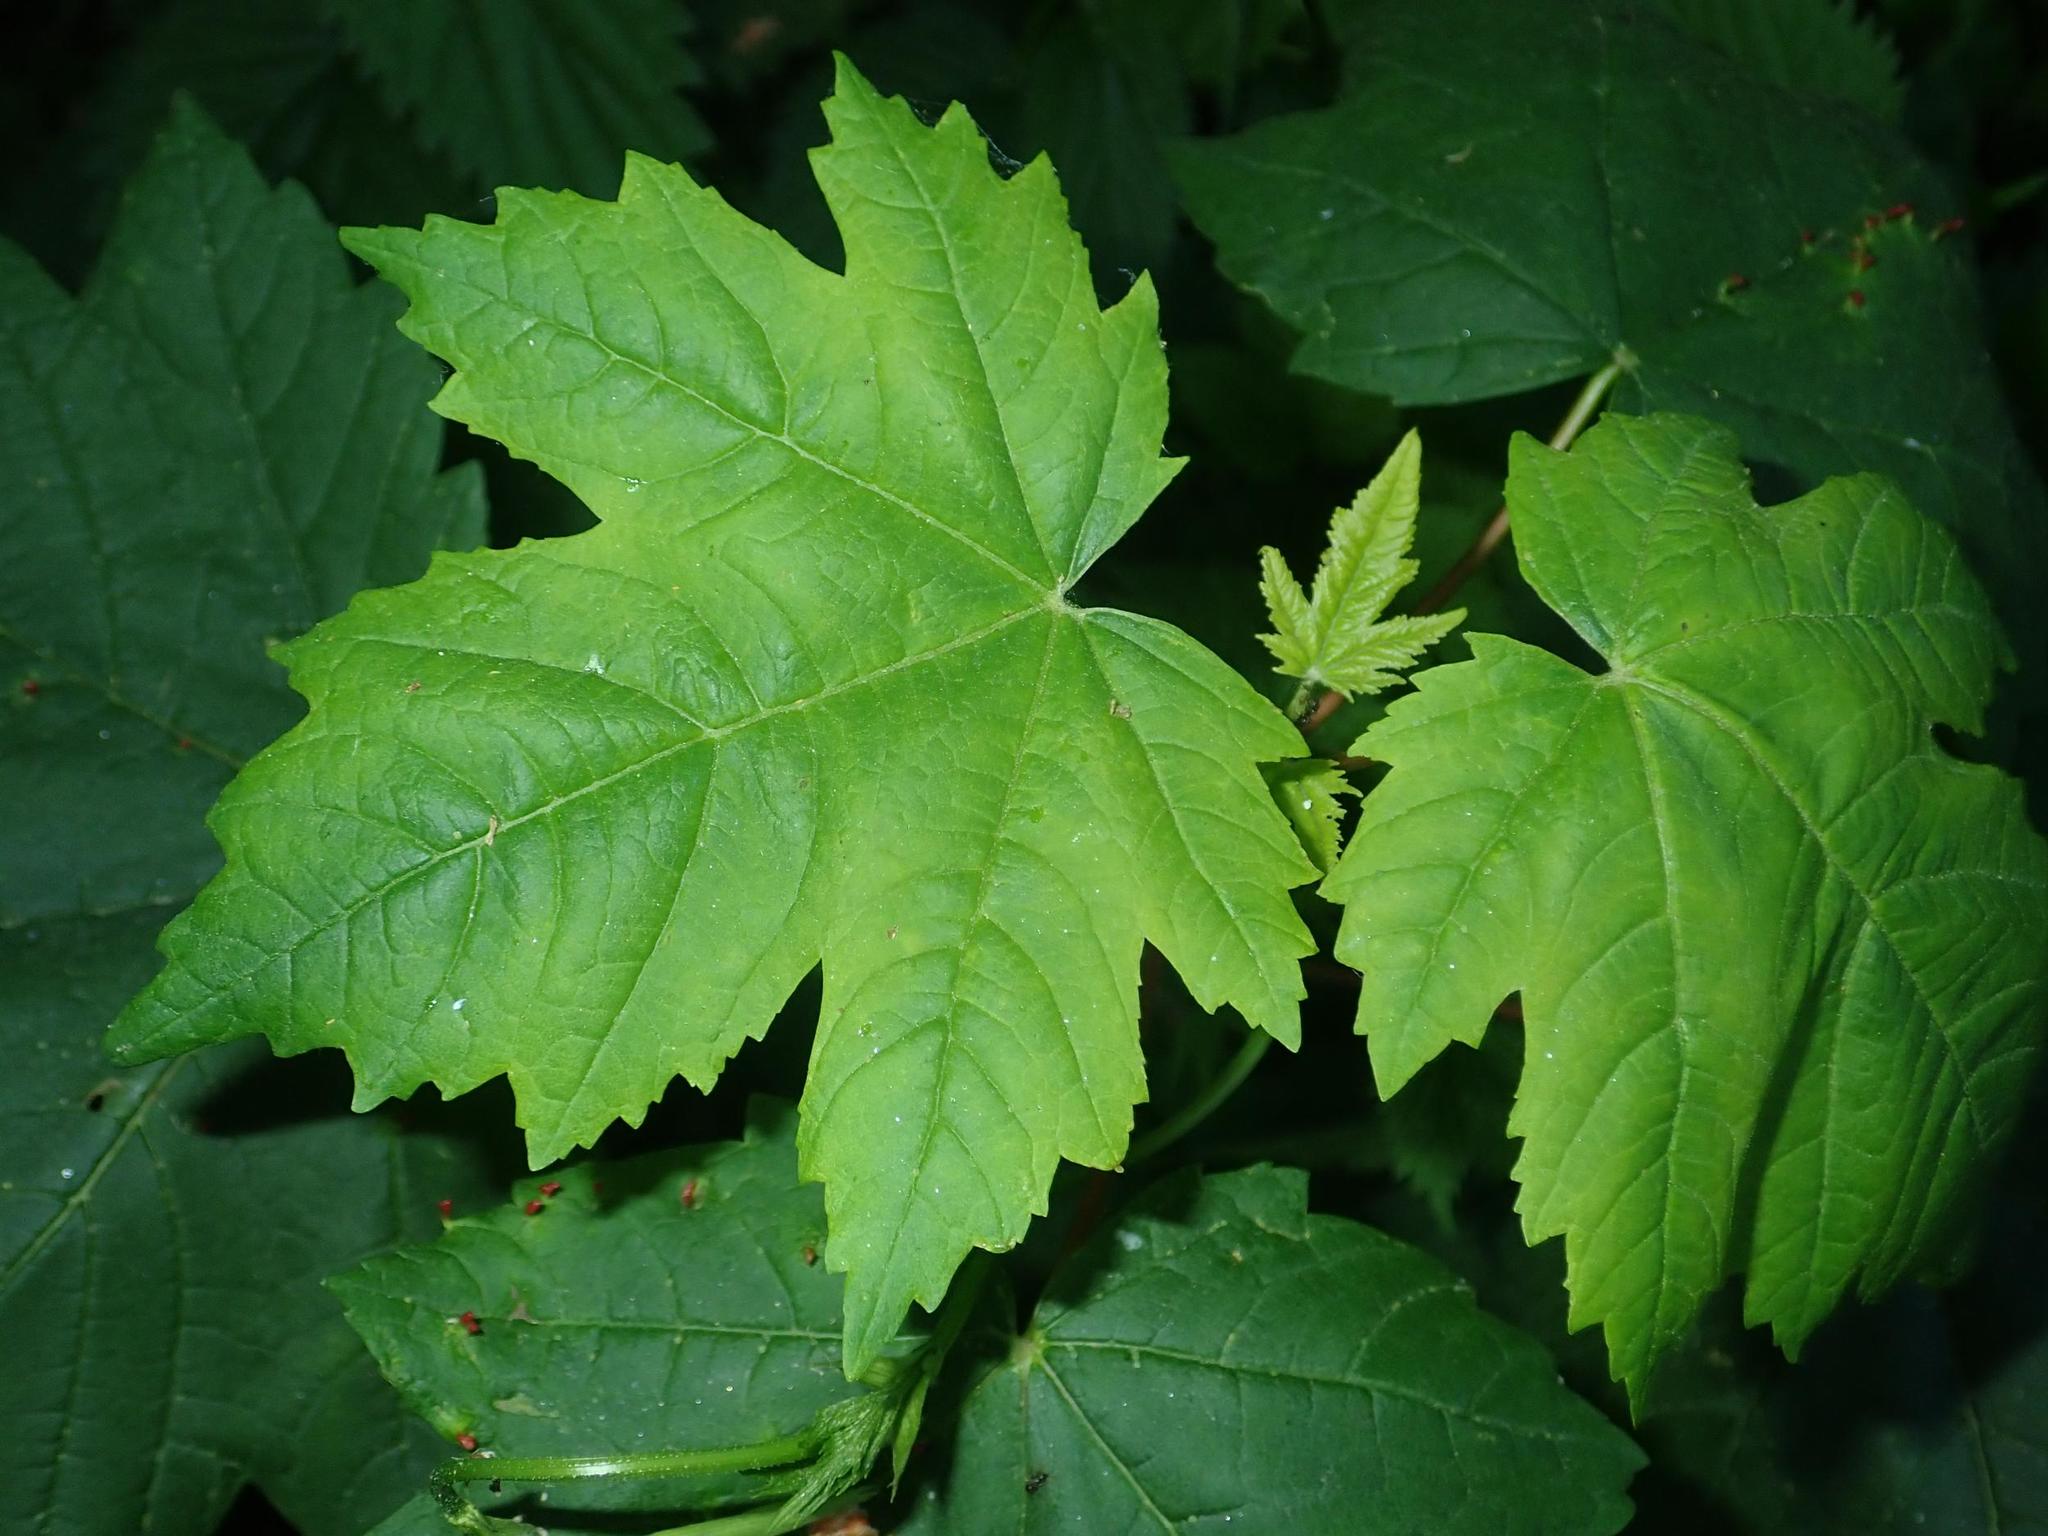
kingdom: Plantae
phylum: Tracheophyta
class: Magnoliopsida
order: Sapindales
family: Sapindaceae
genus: Acer
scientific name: Acer pseudoplatanus
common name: Sycamore
